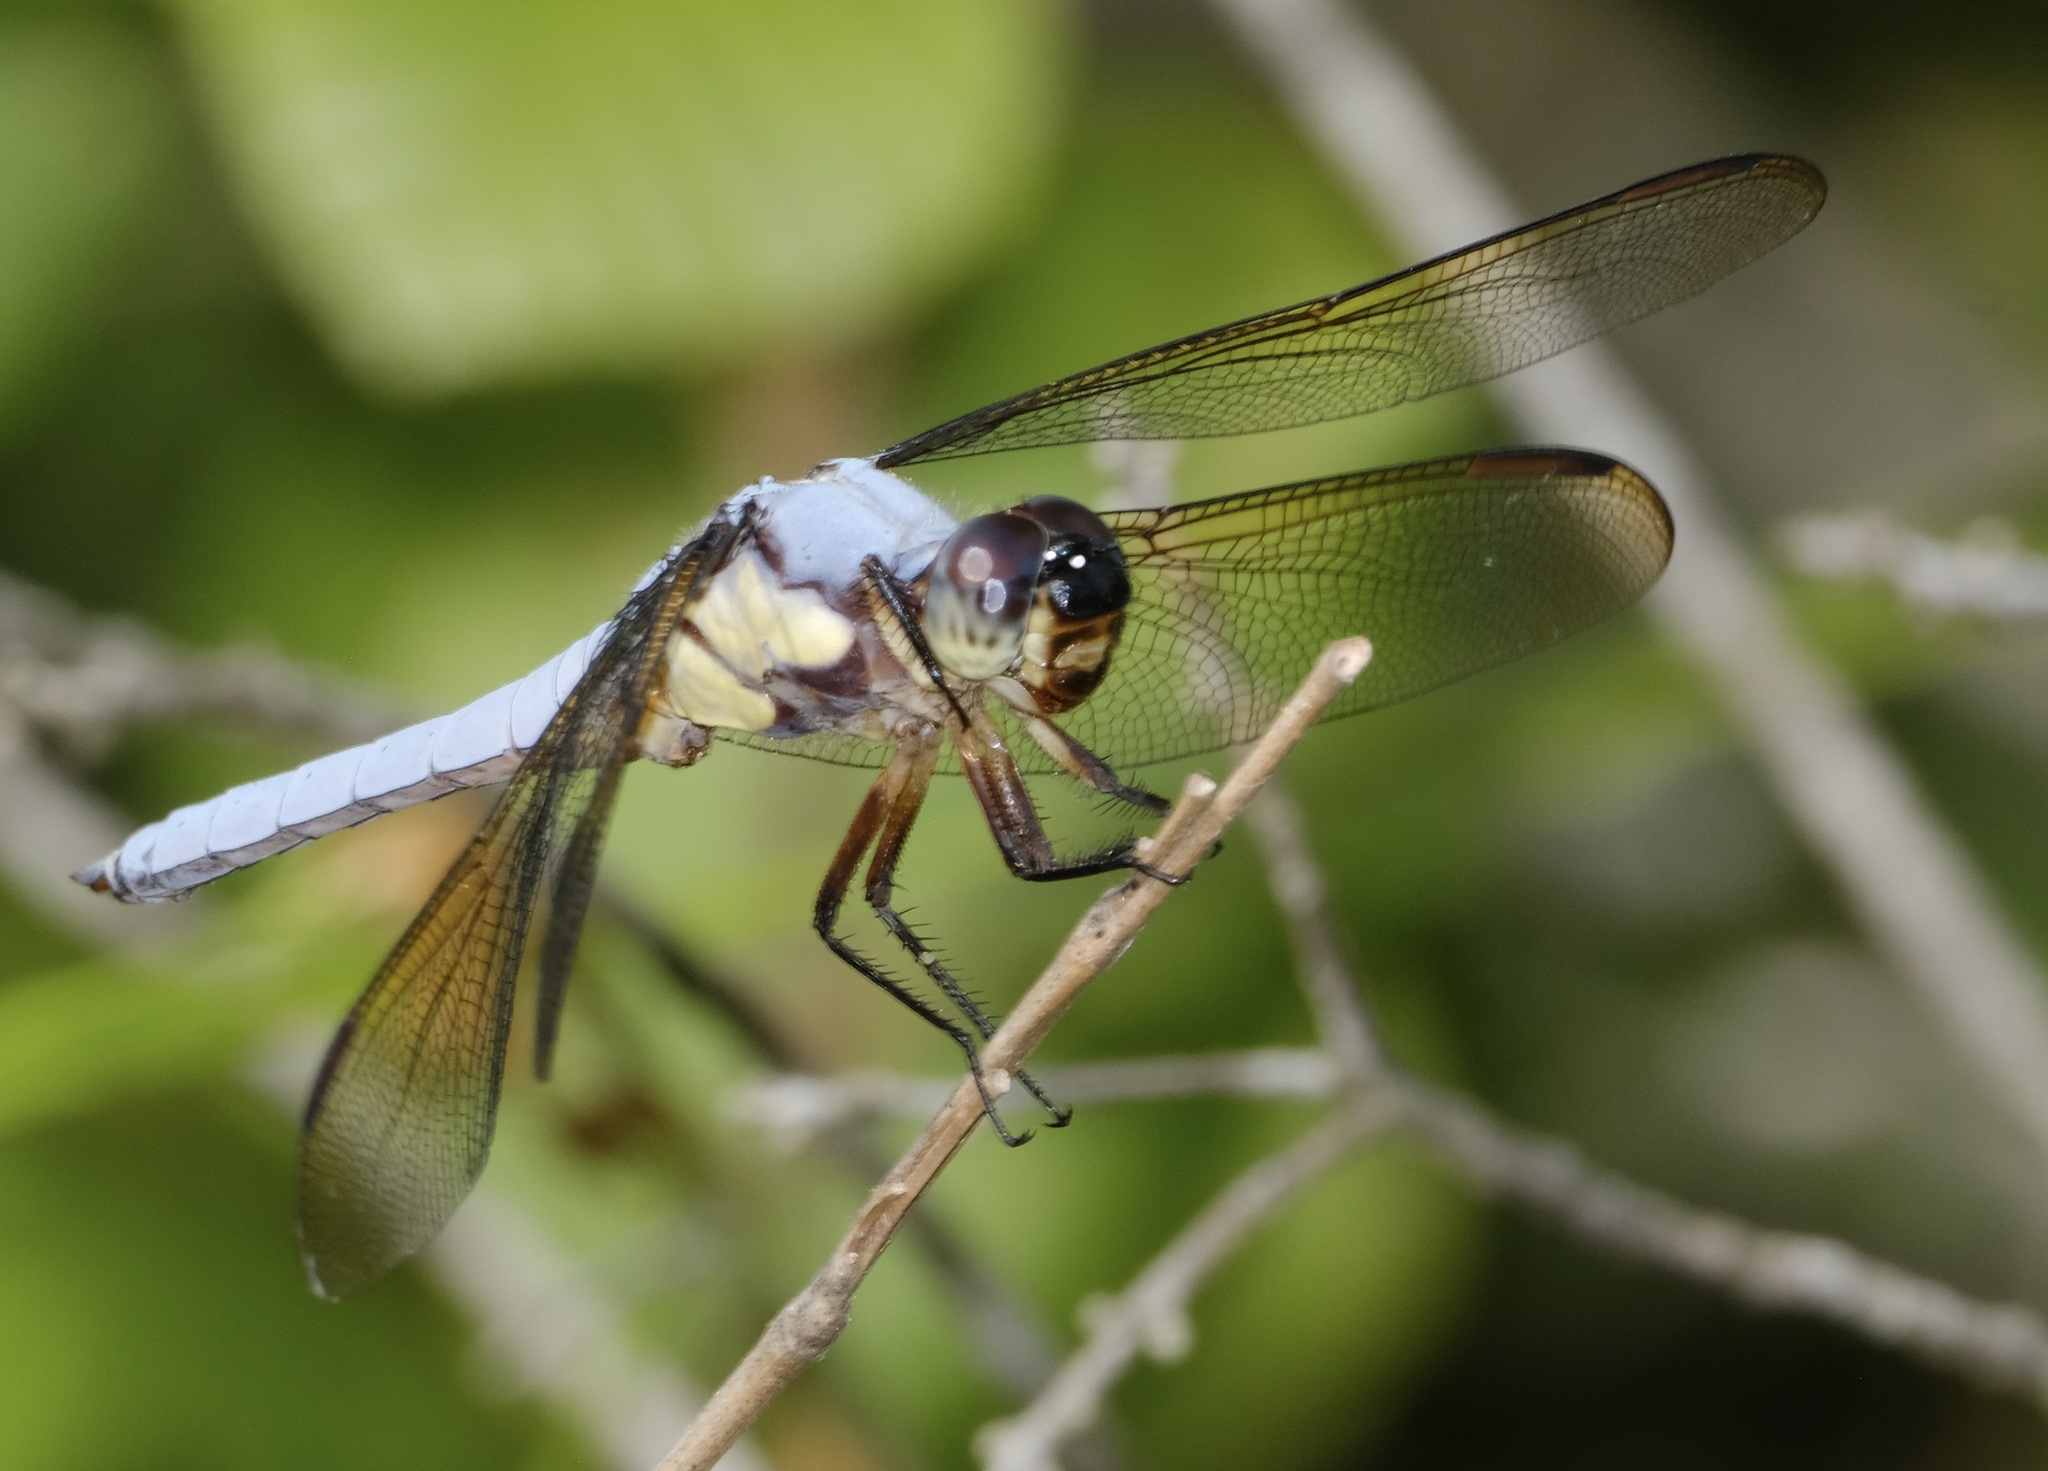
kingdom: Animalia
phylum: Arthropoda
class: Insecta
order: Odonata
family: Libellulidae
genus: Libellula
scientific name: Libellula flavida
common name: Yellow-sided skimmer
